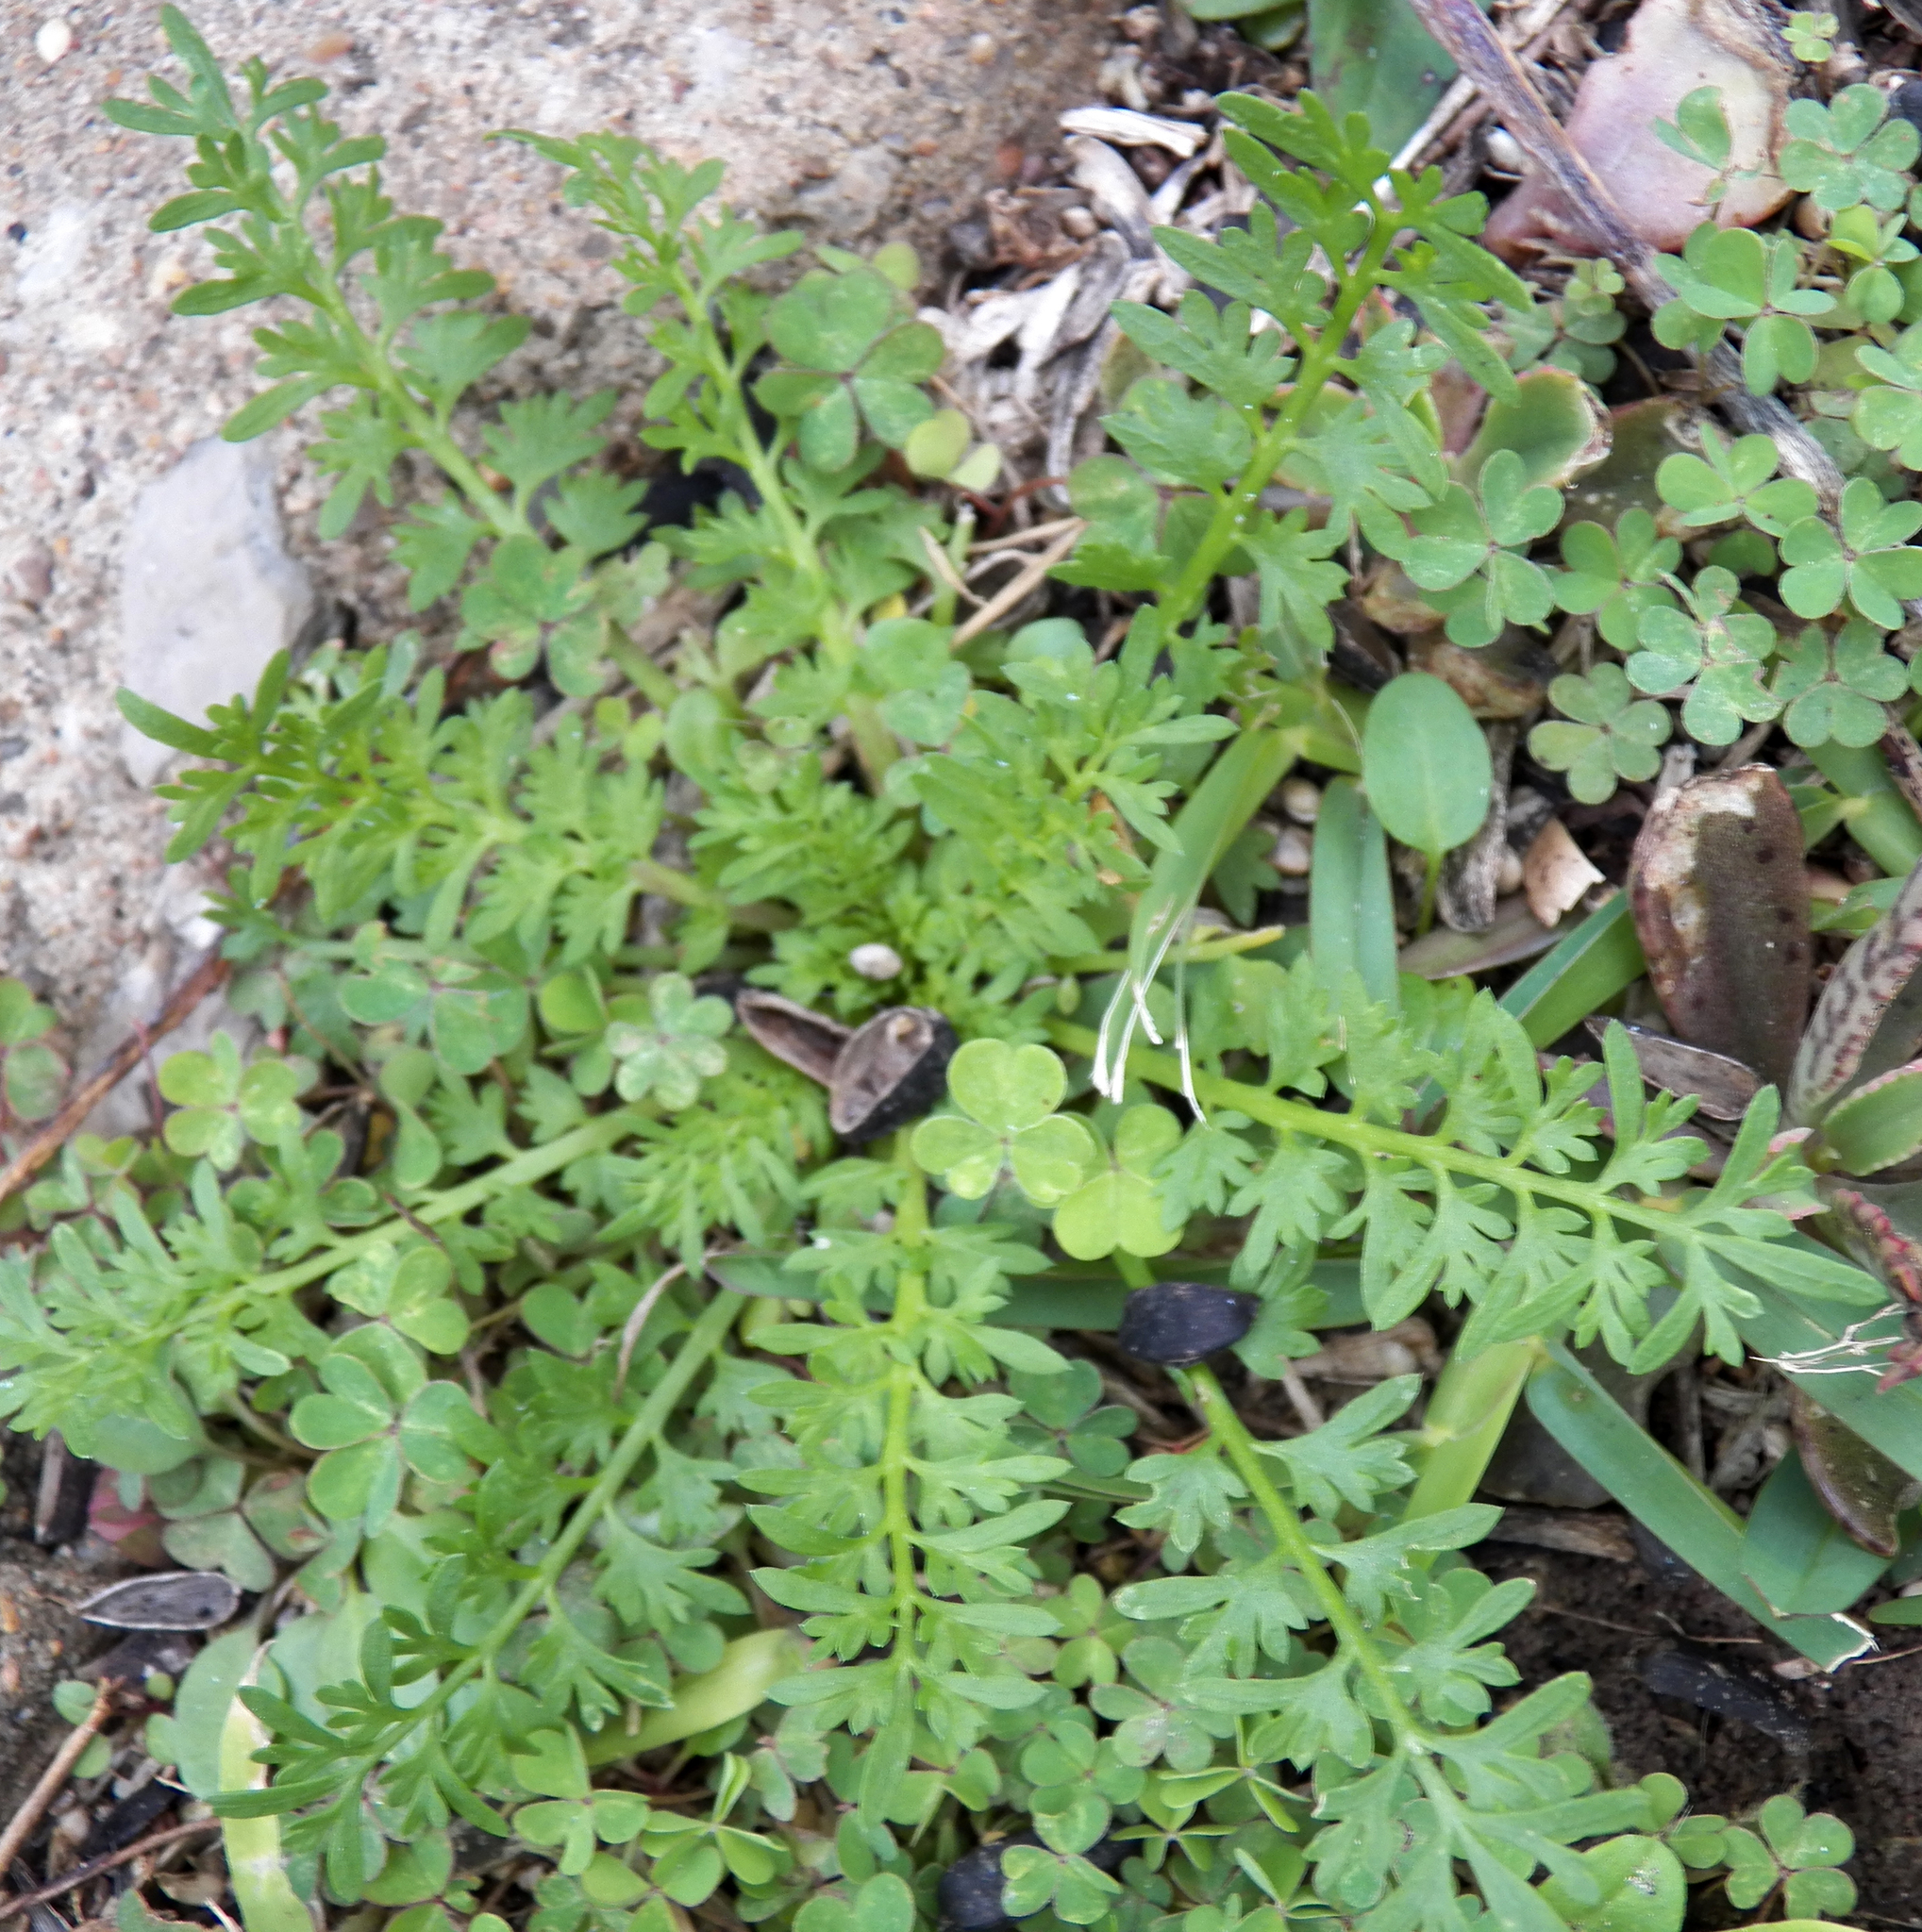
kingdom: Plantae
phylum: Tracheophyta
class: Magnoliopsida
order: Brassicales
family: Brassicaceae
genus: Lepidium
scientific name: Lepidium didymum
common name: Lesser swinecress
